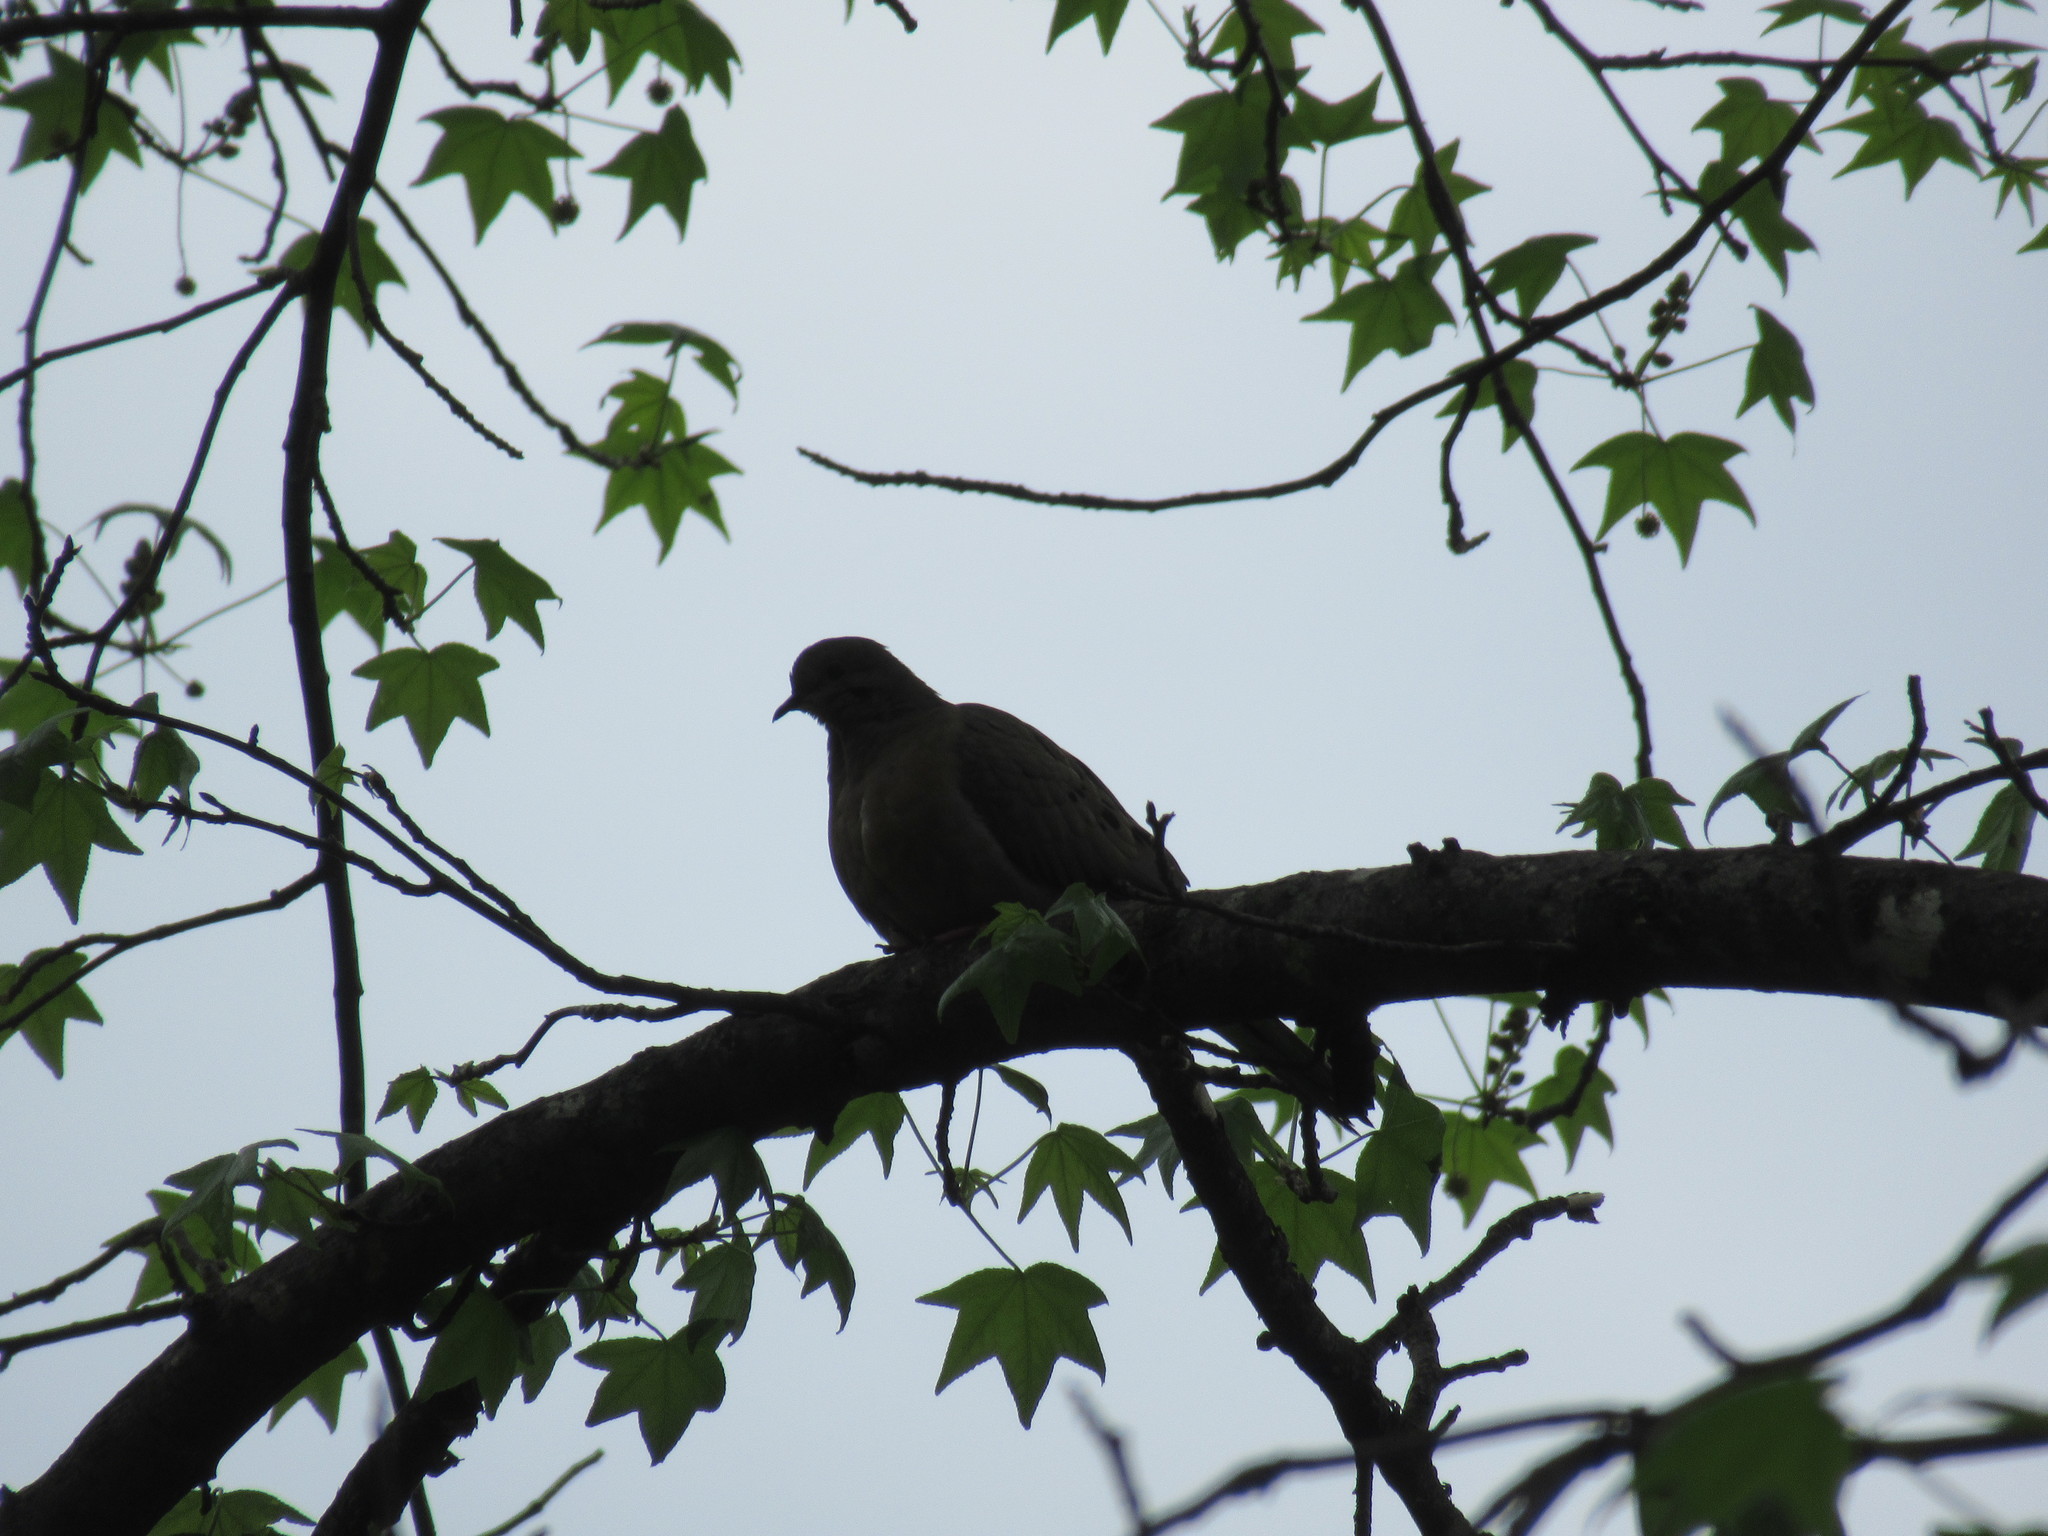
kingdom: Animalia
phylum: Chordata
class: Aves
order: Columbiformes
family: Columbidae
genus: Zenaida
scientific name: Zenaida macroura
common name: Mourning dove
